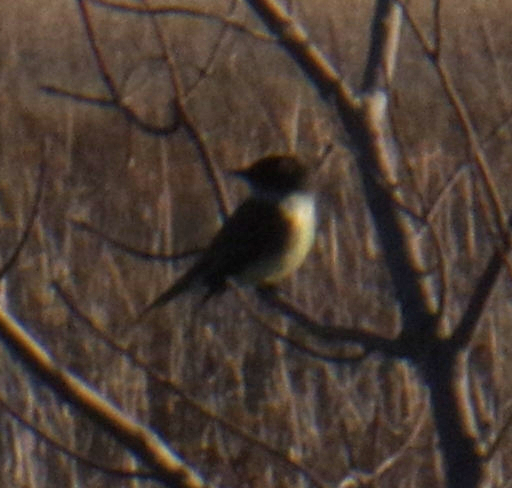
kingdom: Animalia
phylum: Chordata
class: Aves
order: Passeriformes
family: Tyrannidae
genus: Sayornis
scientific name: Sayornis phoebe
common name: Eastern phoebe
